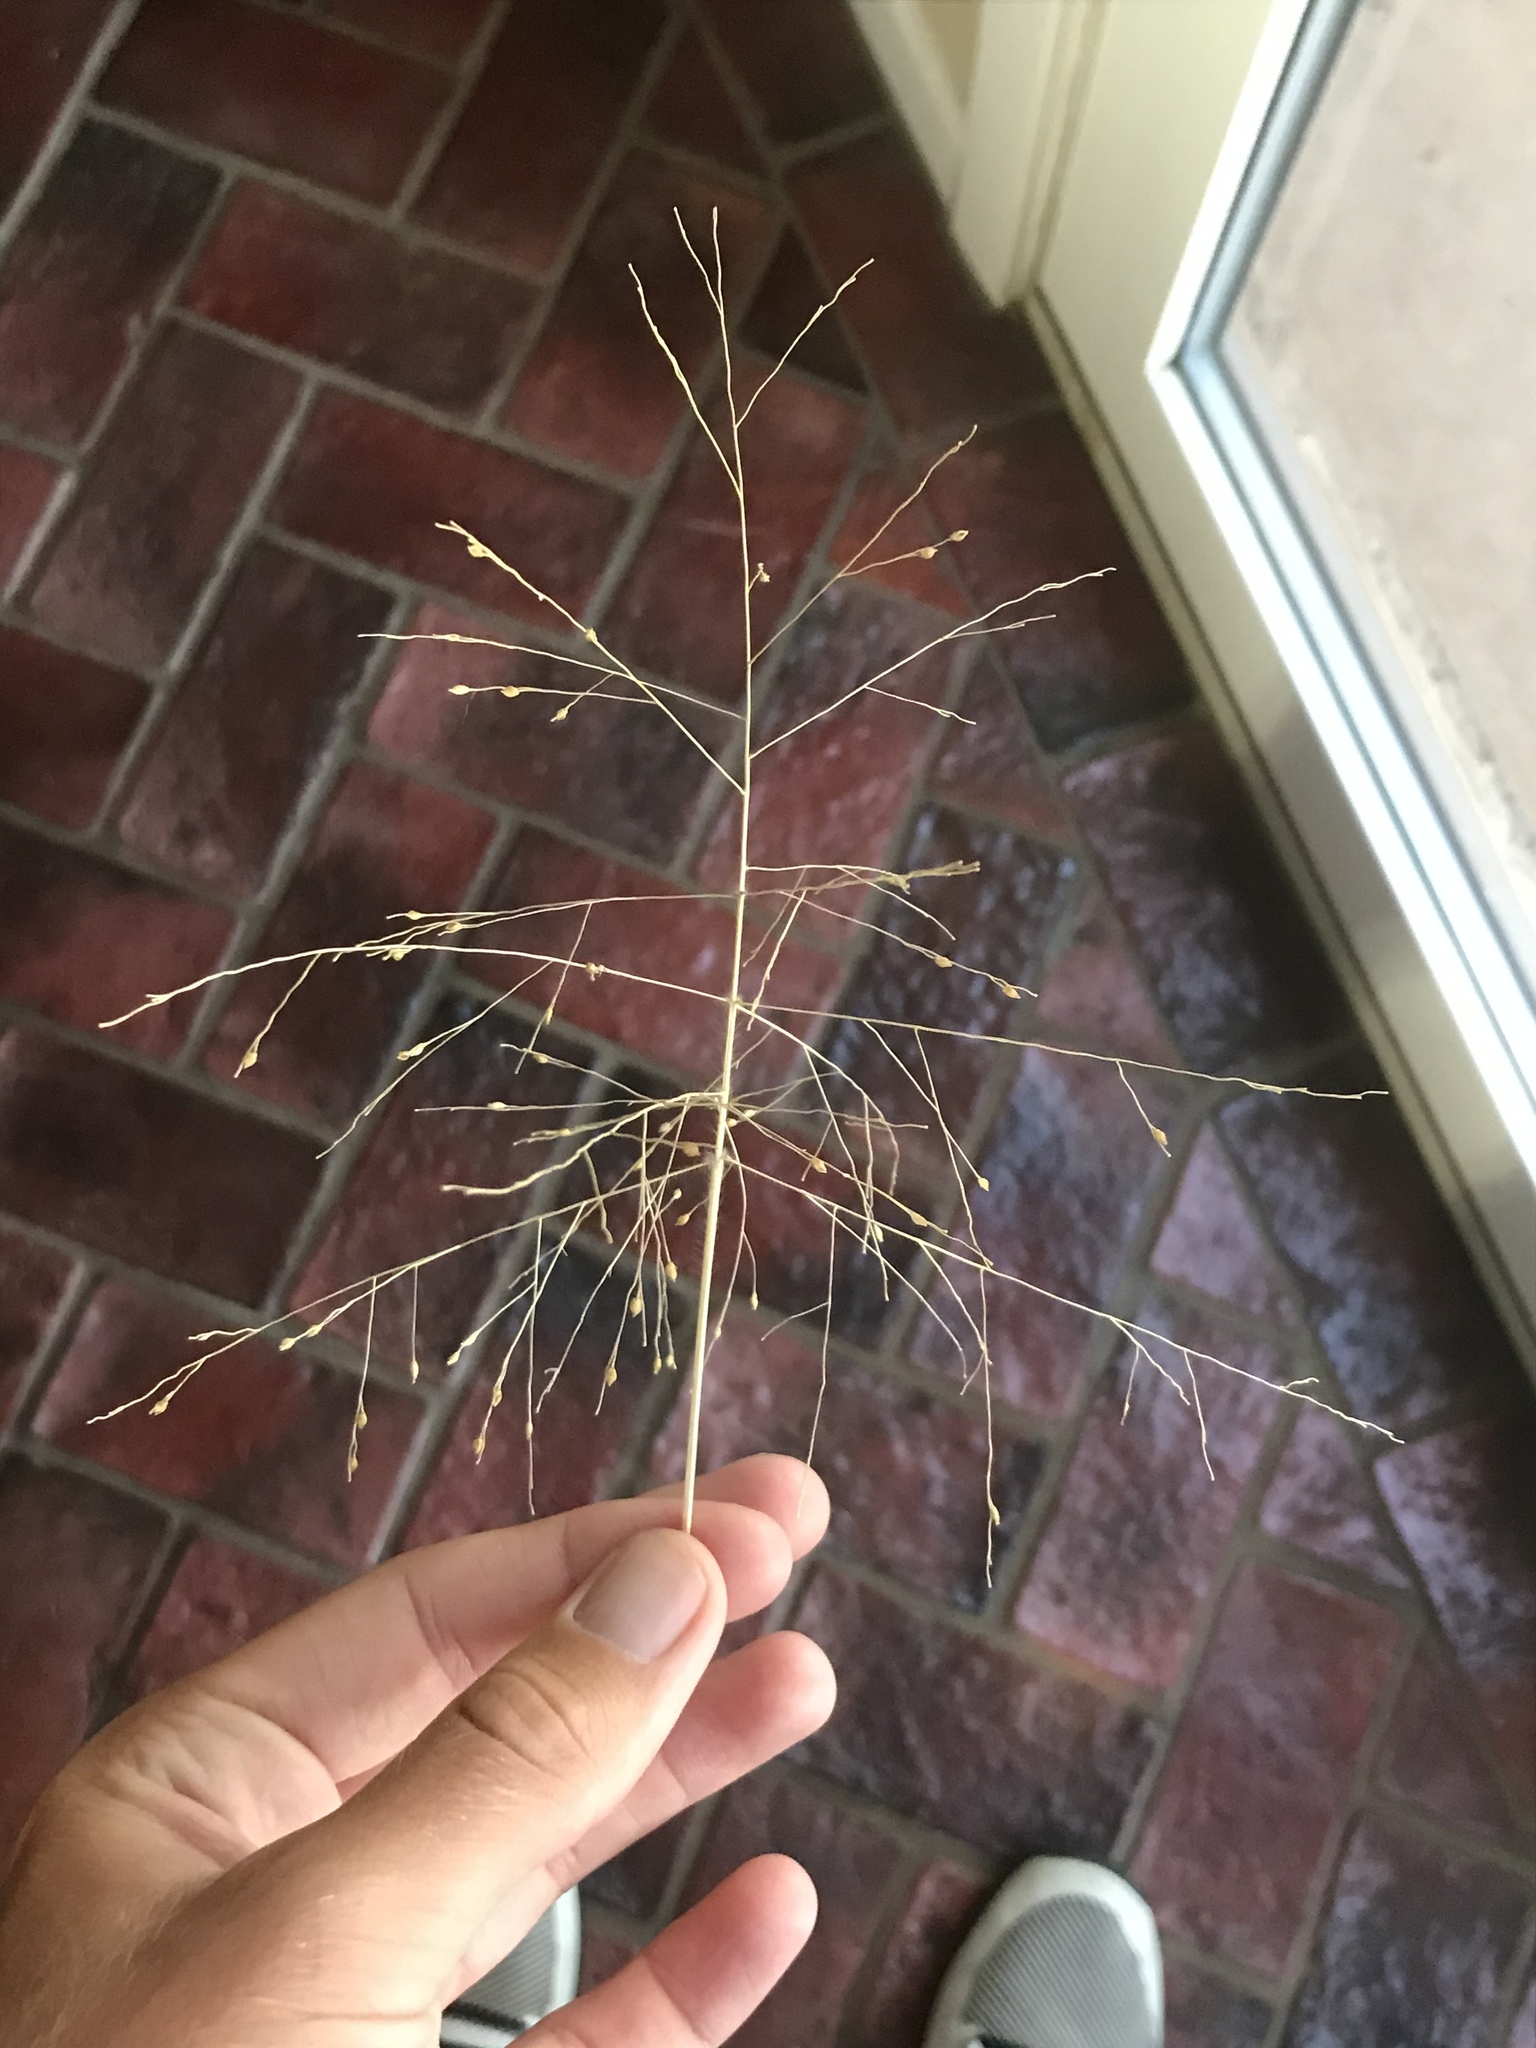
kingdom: Plantae
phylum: Tracheophyta
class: Liliopsida
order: Poales
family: Poaceae
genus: Panicum
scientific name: Panicum capillare
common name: Witch-grass
